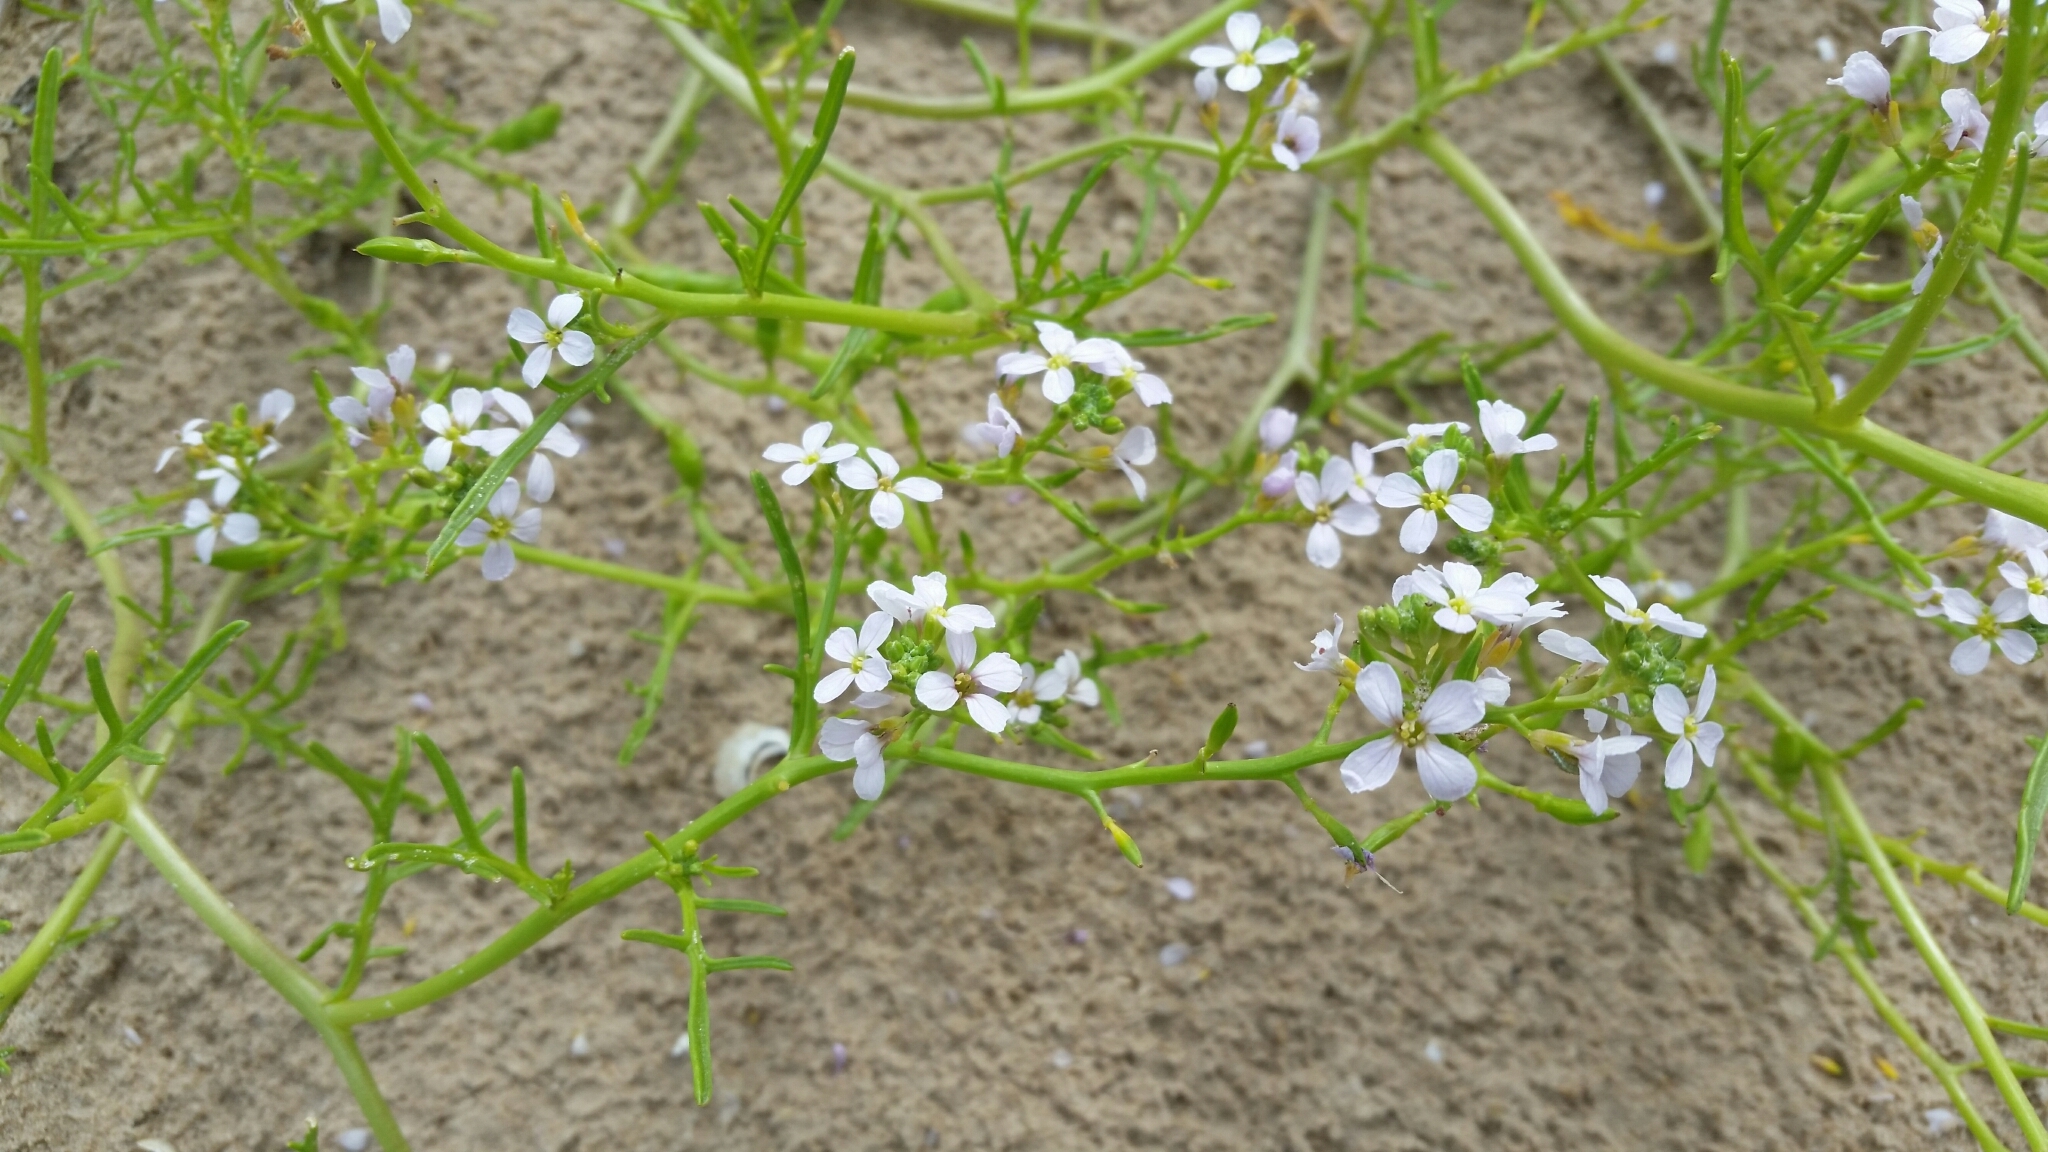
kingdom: Plantae
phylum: Tracheophyta
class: Magnoliopsida
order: Brassicales
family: Brassicaceae
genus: Cakile
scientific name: Cakile maritima
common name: Sea rocket
